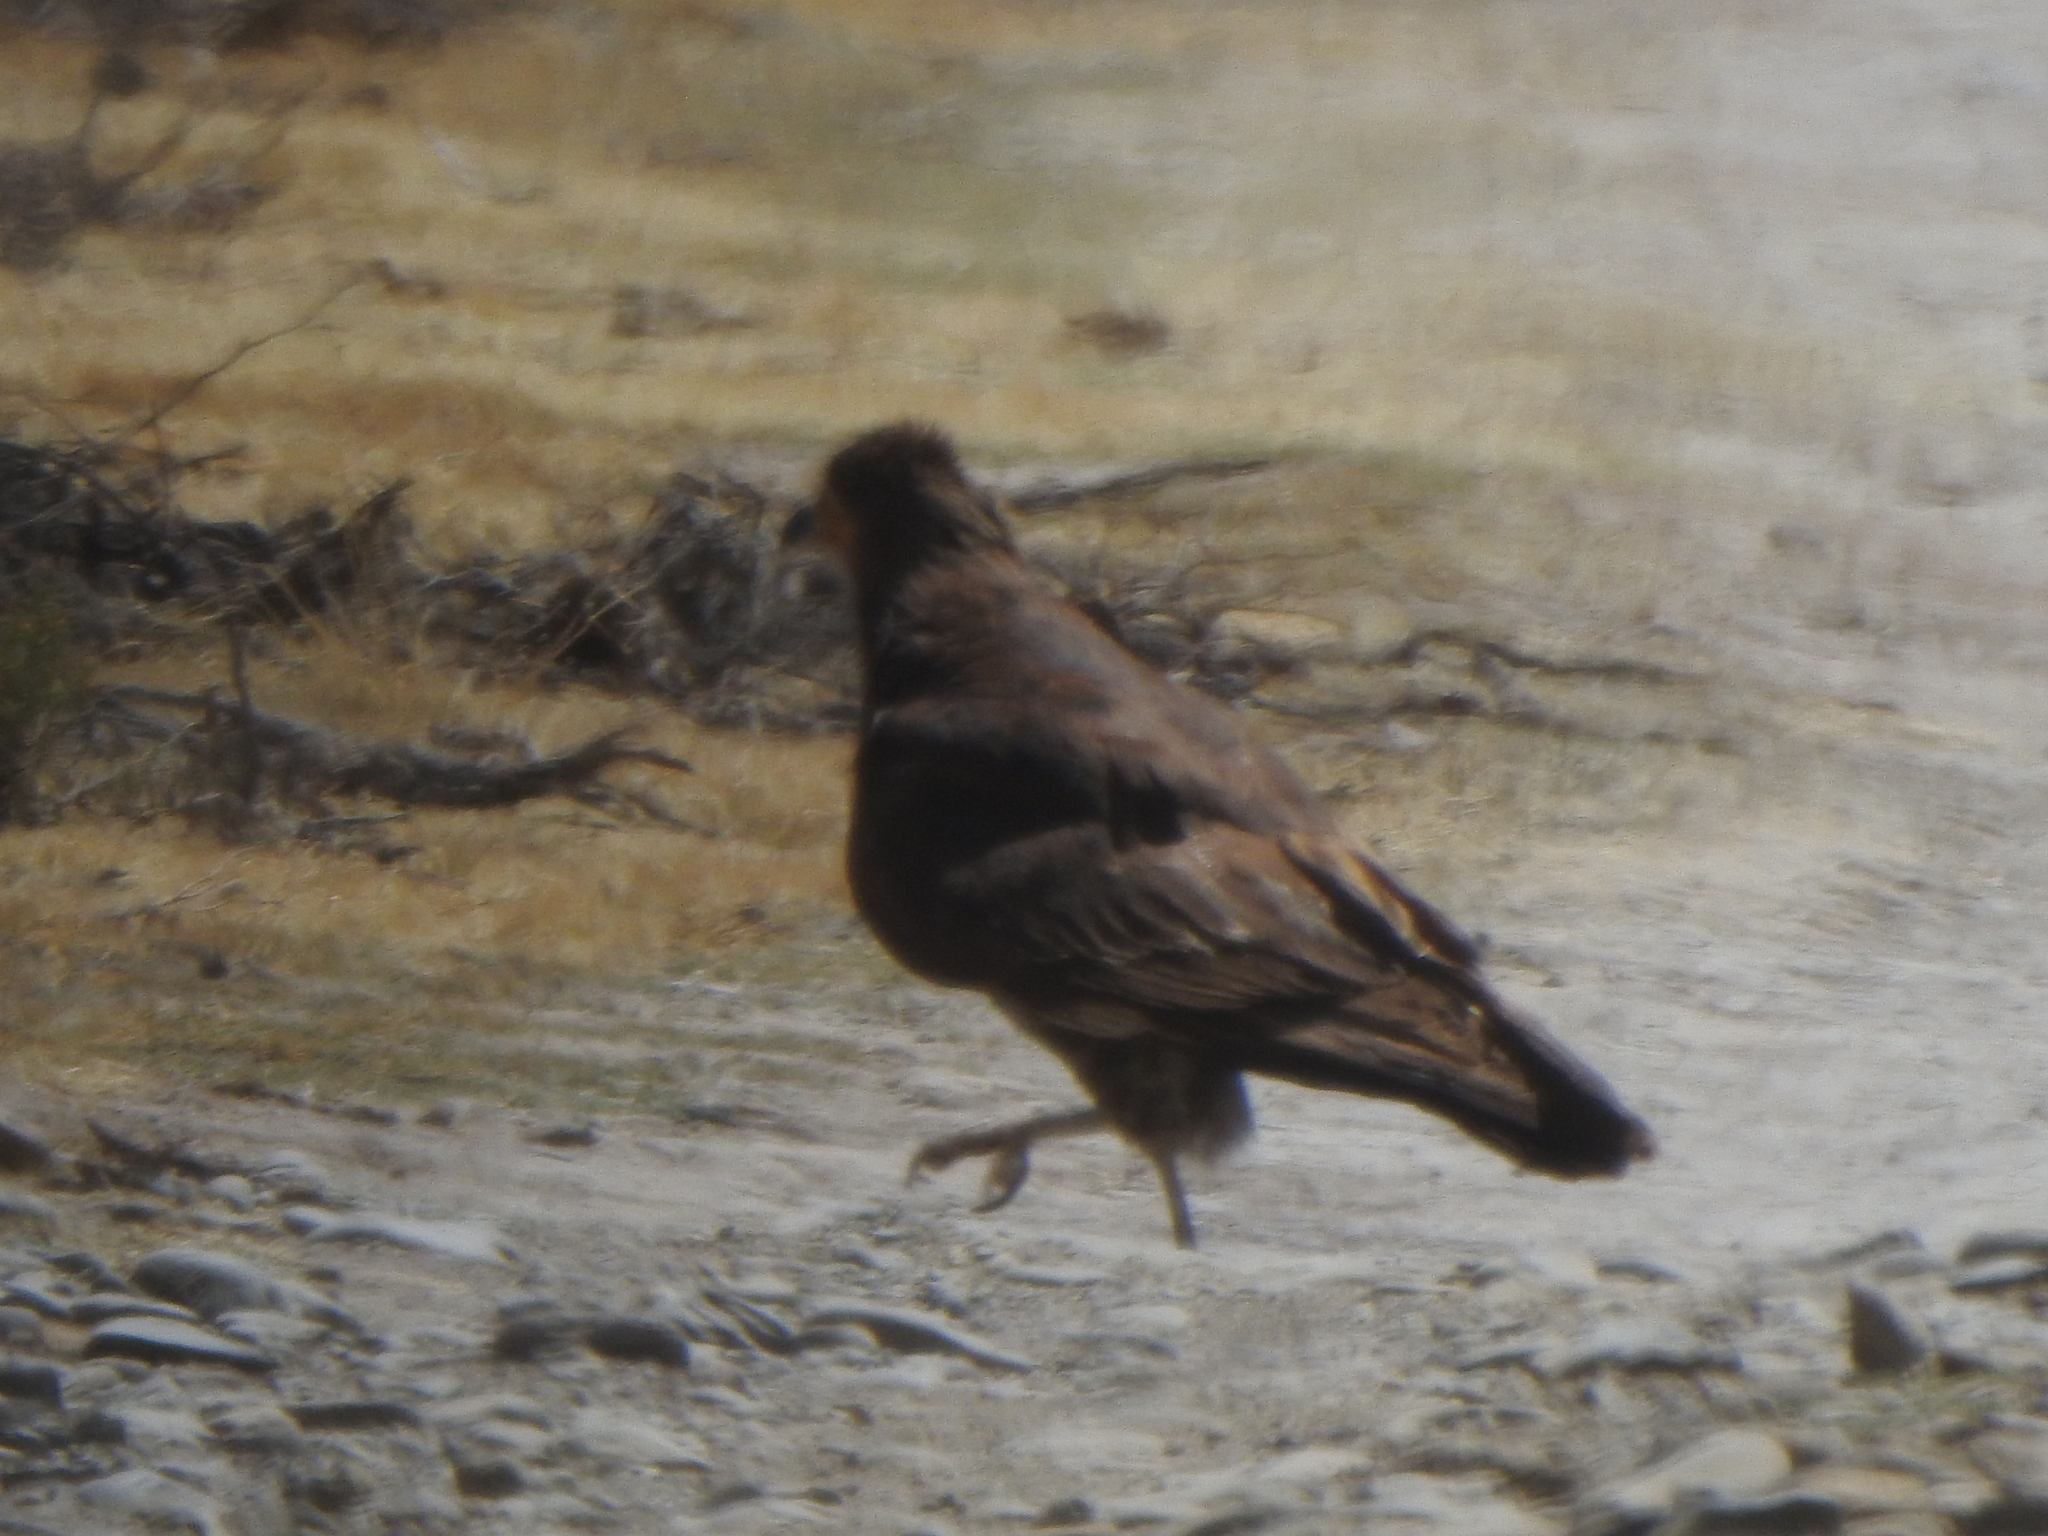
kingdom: Animalia
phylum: Chordata
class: Aves
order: Falconiformes
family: Falconidae
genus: Daptrius
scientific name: Daptrius
